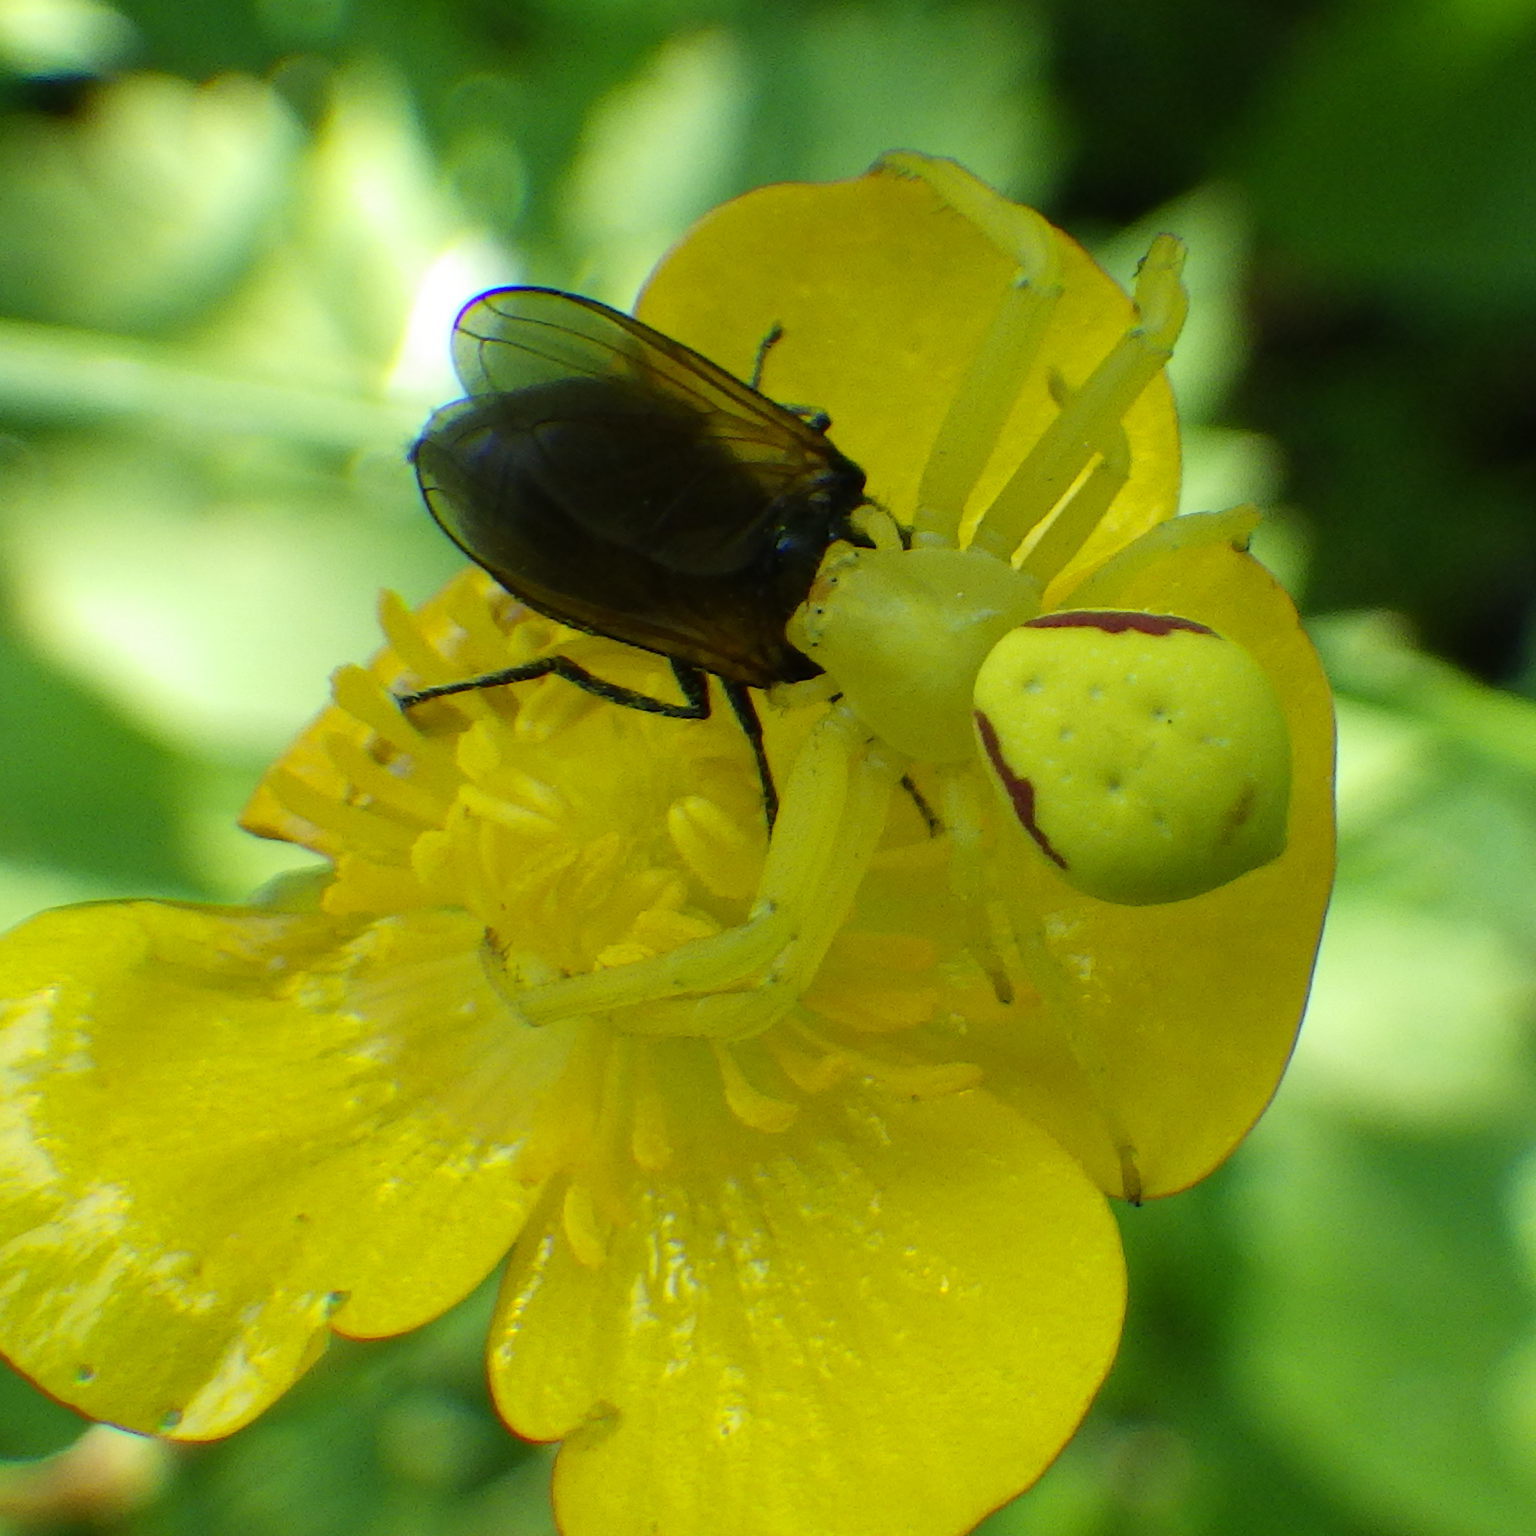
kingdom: Animalia
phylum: Arthropoda
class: Arachnida
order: Araneae
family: Thomisidae
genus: Misumena
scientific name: Misumena vatia
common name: Goldenrod crab spider
